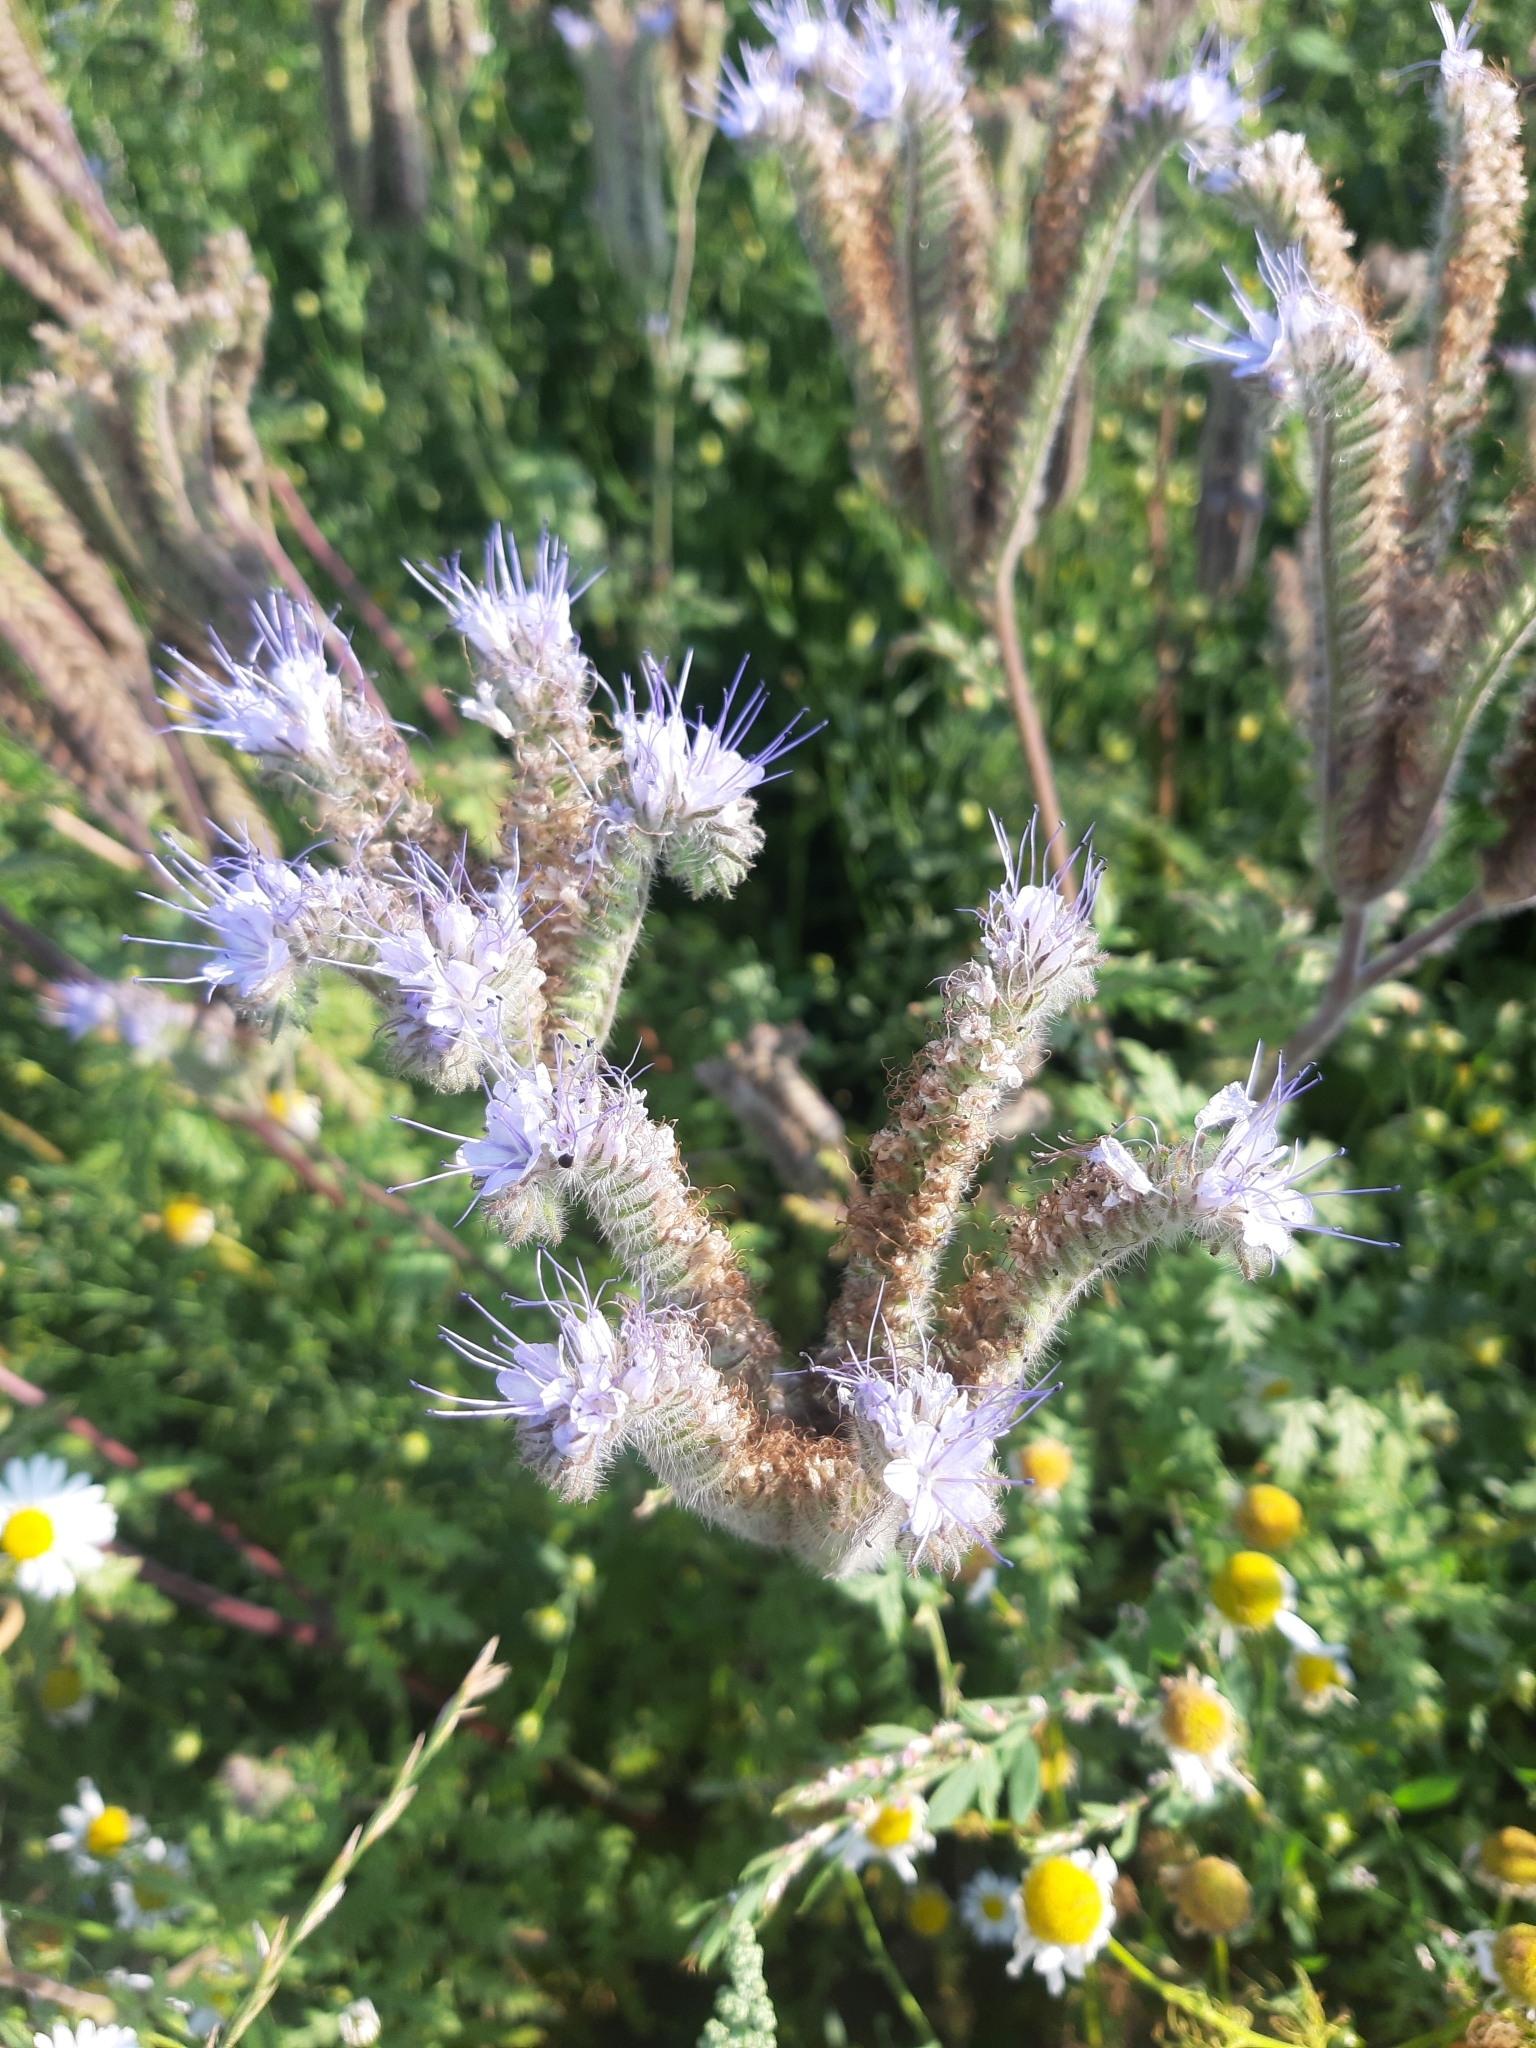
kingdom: Plantae
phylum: Tracheophyta
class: Magnoliopsida
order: Boraginales
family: Hydrophyllaceae
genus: Phacelia
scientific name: Phacelia tanacetifolia
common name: Phacelia
